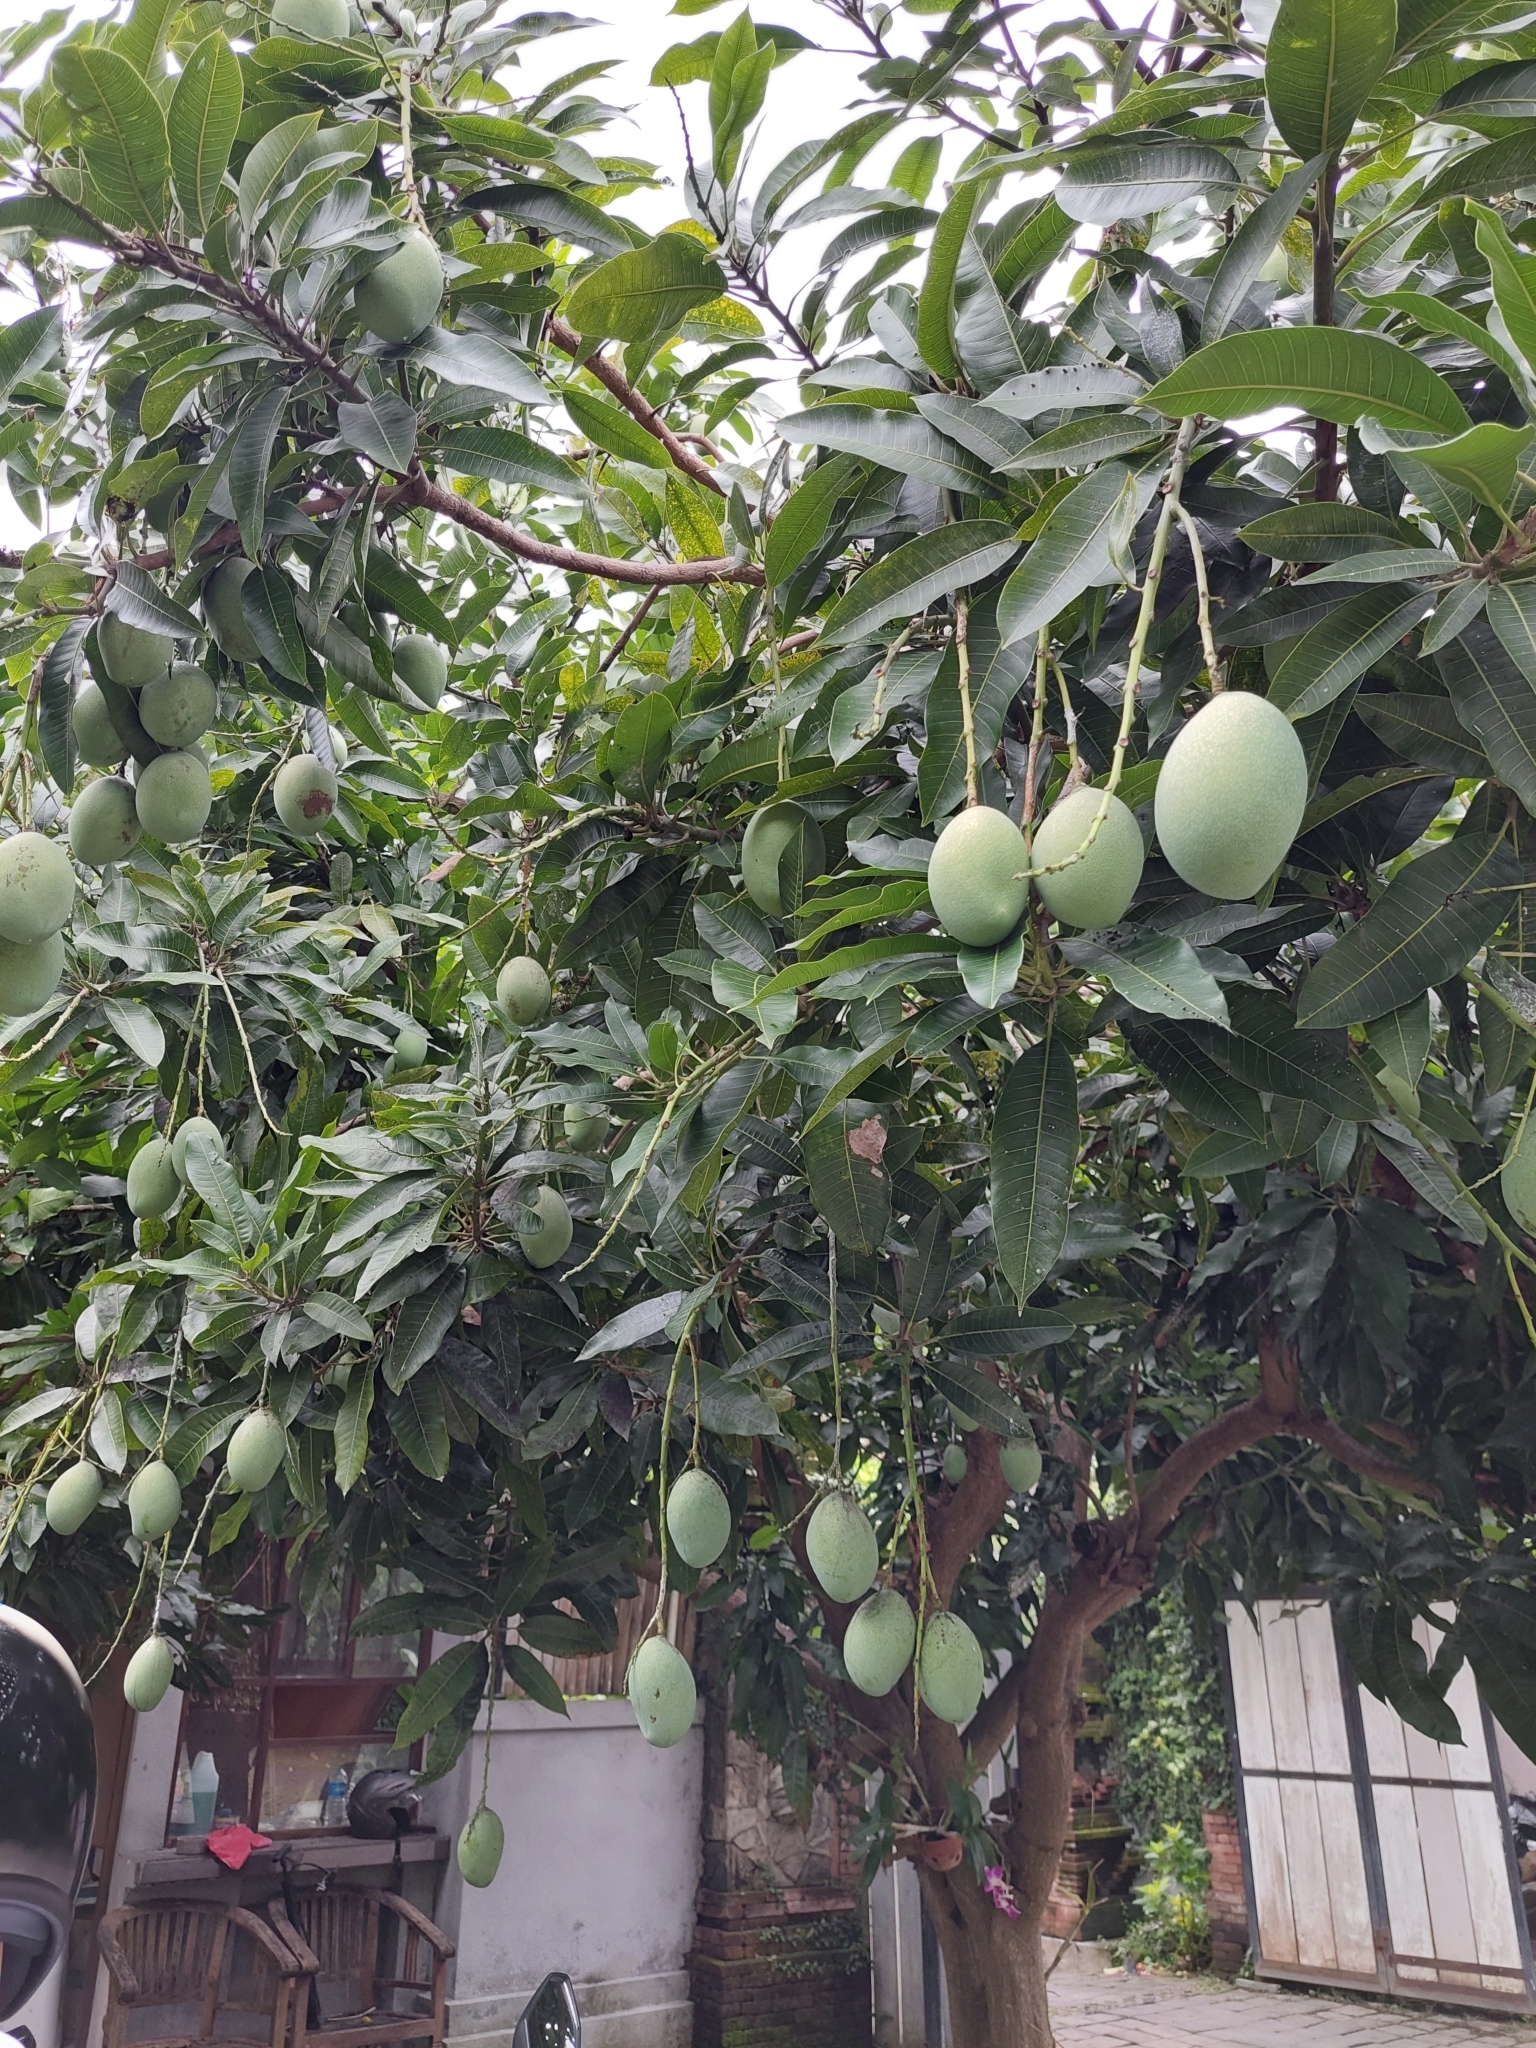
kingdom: Plantae
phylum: Tracheophyta
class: Magnoliopsida
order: Sapindales
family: Anacardiaceae
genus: Mangifera
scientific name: Mangifera indica
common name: Mango
